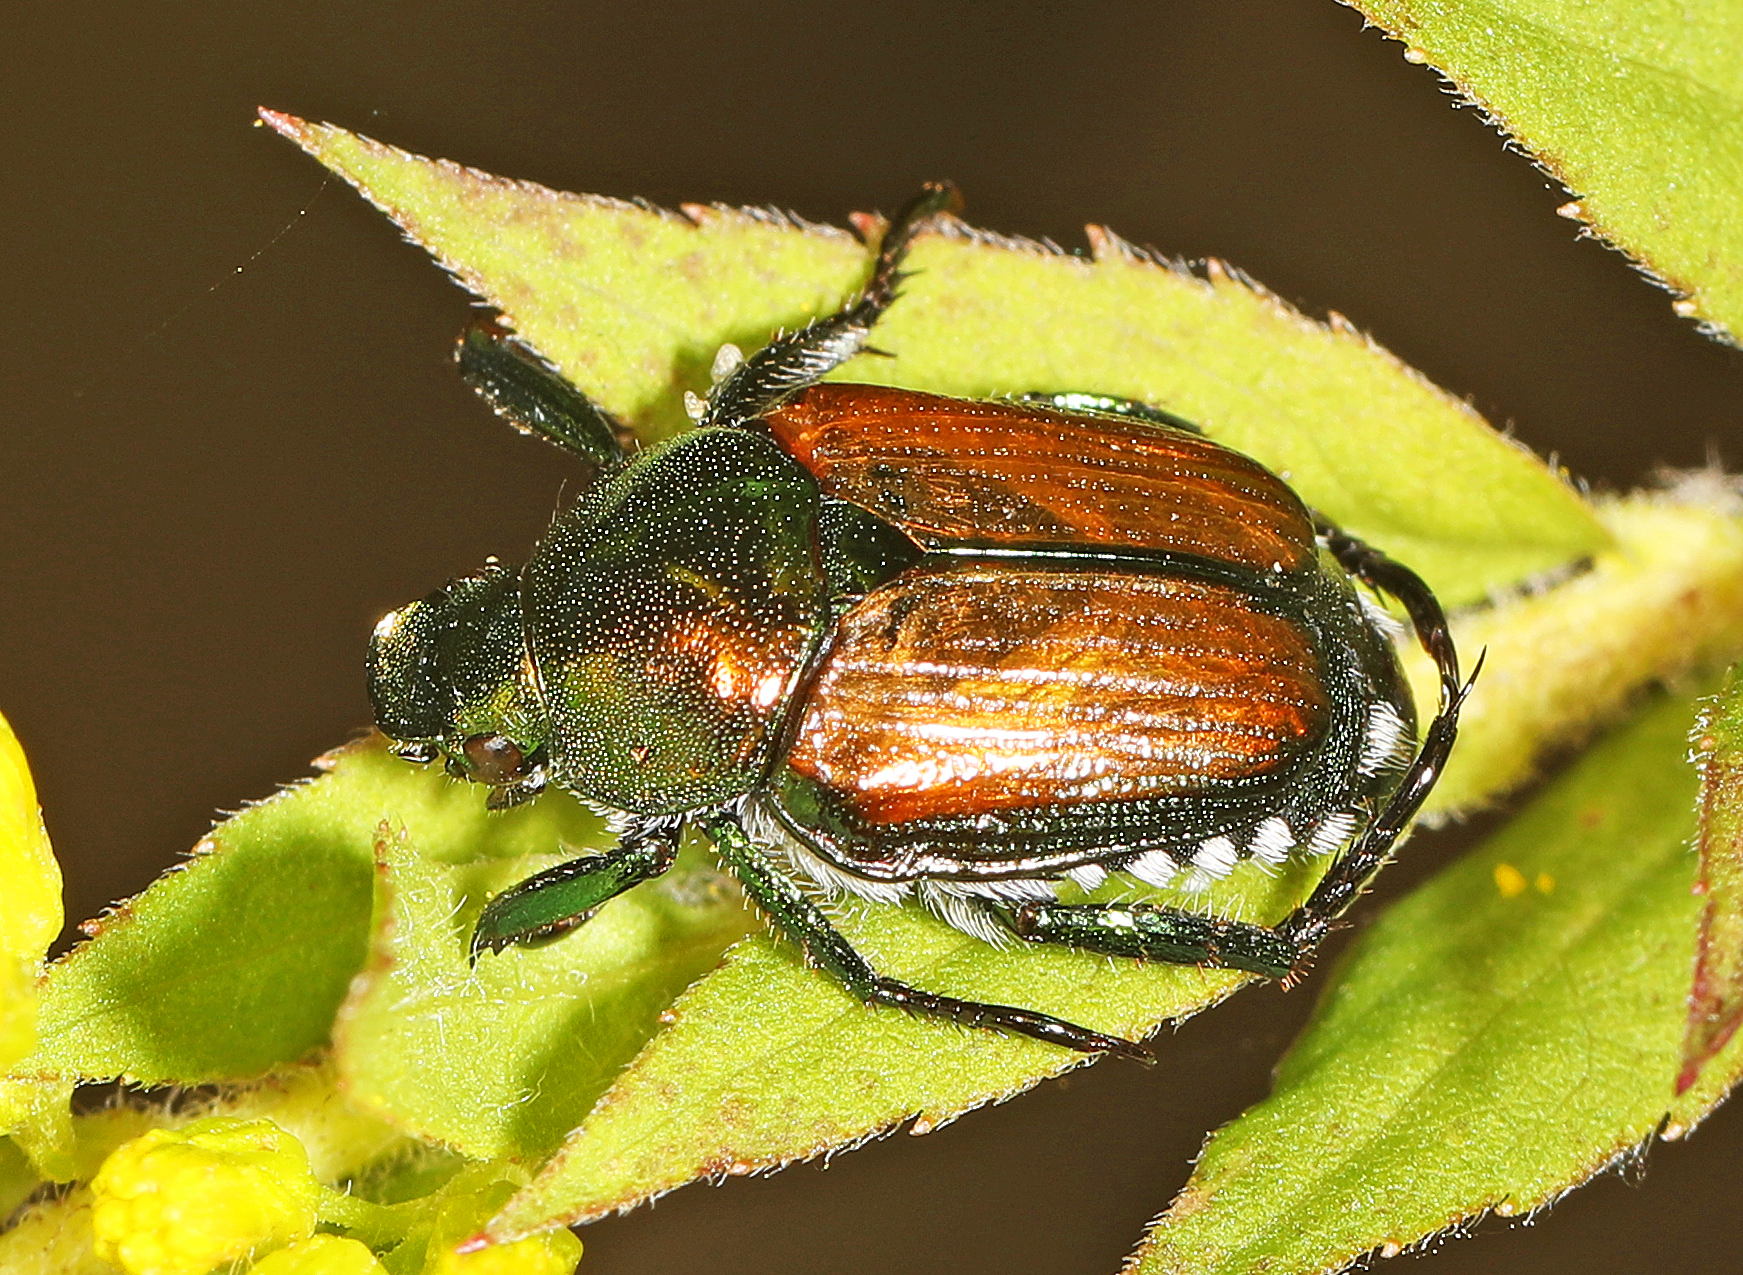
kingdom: Animalia
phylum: Arthropoda
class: Insecta
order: Coleoptera
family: Scarabaeidae
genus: Popillia
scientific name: Popillia japonica
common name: Japanese beetle
